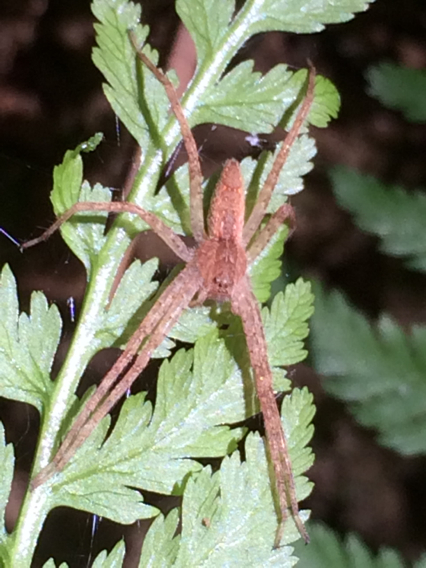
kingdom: Animalia
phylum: Arthropoda
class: Arachnida
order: Araneae
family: Pisauridae
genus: Pisaurina
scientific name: Pisaurina mira
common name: American nursery web spider
